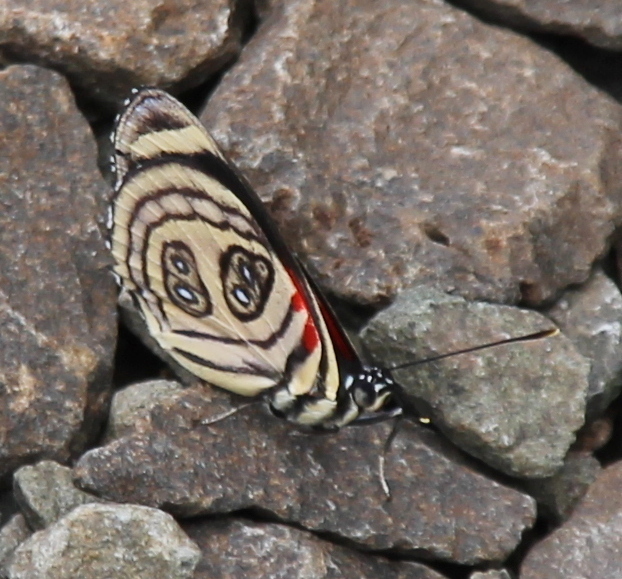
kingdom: Animalia
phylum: Arthropoda
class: Insecta
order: Lepidoptera
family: Nymphalidae
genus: Catagramma
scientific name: Catagramma pygas
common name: Godart's numberwing
